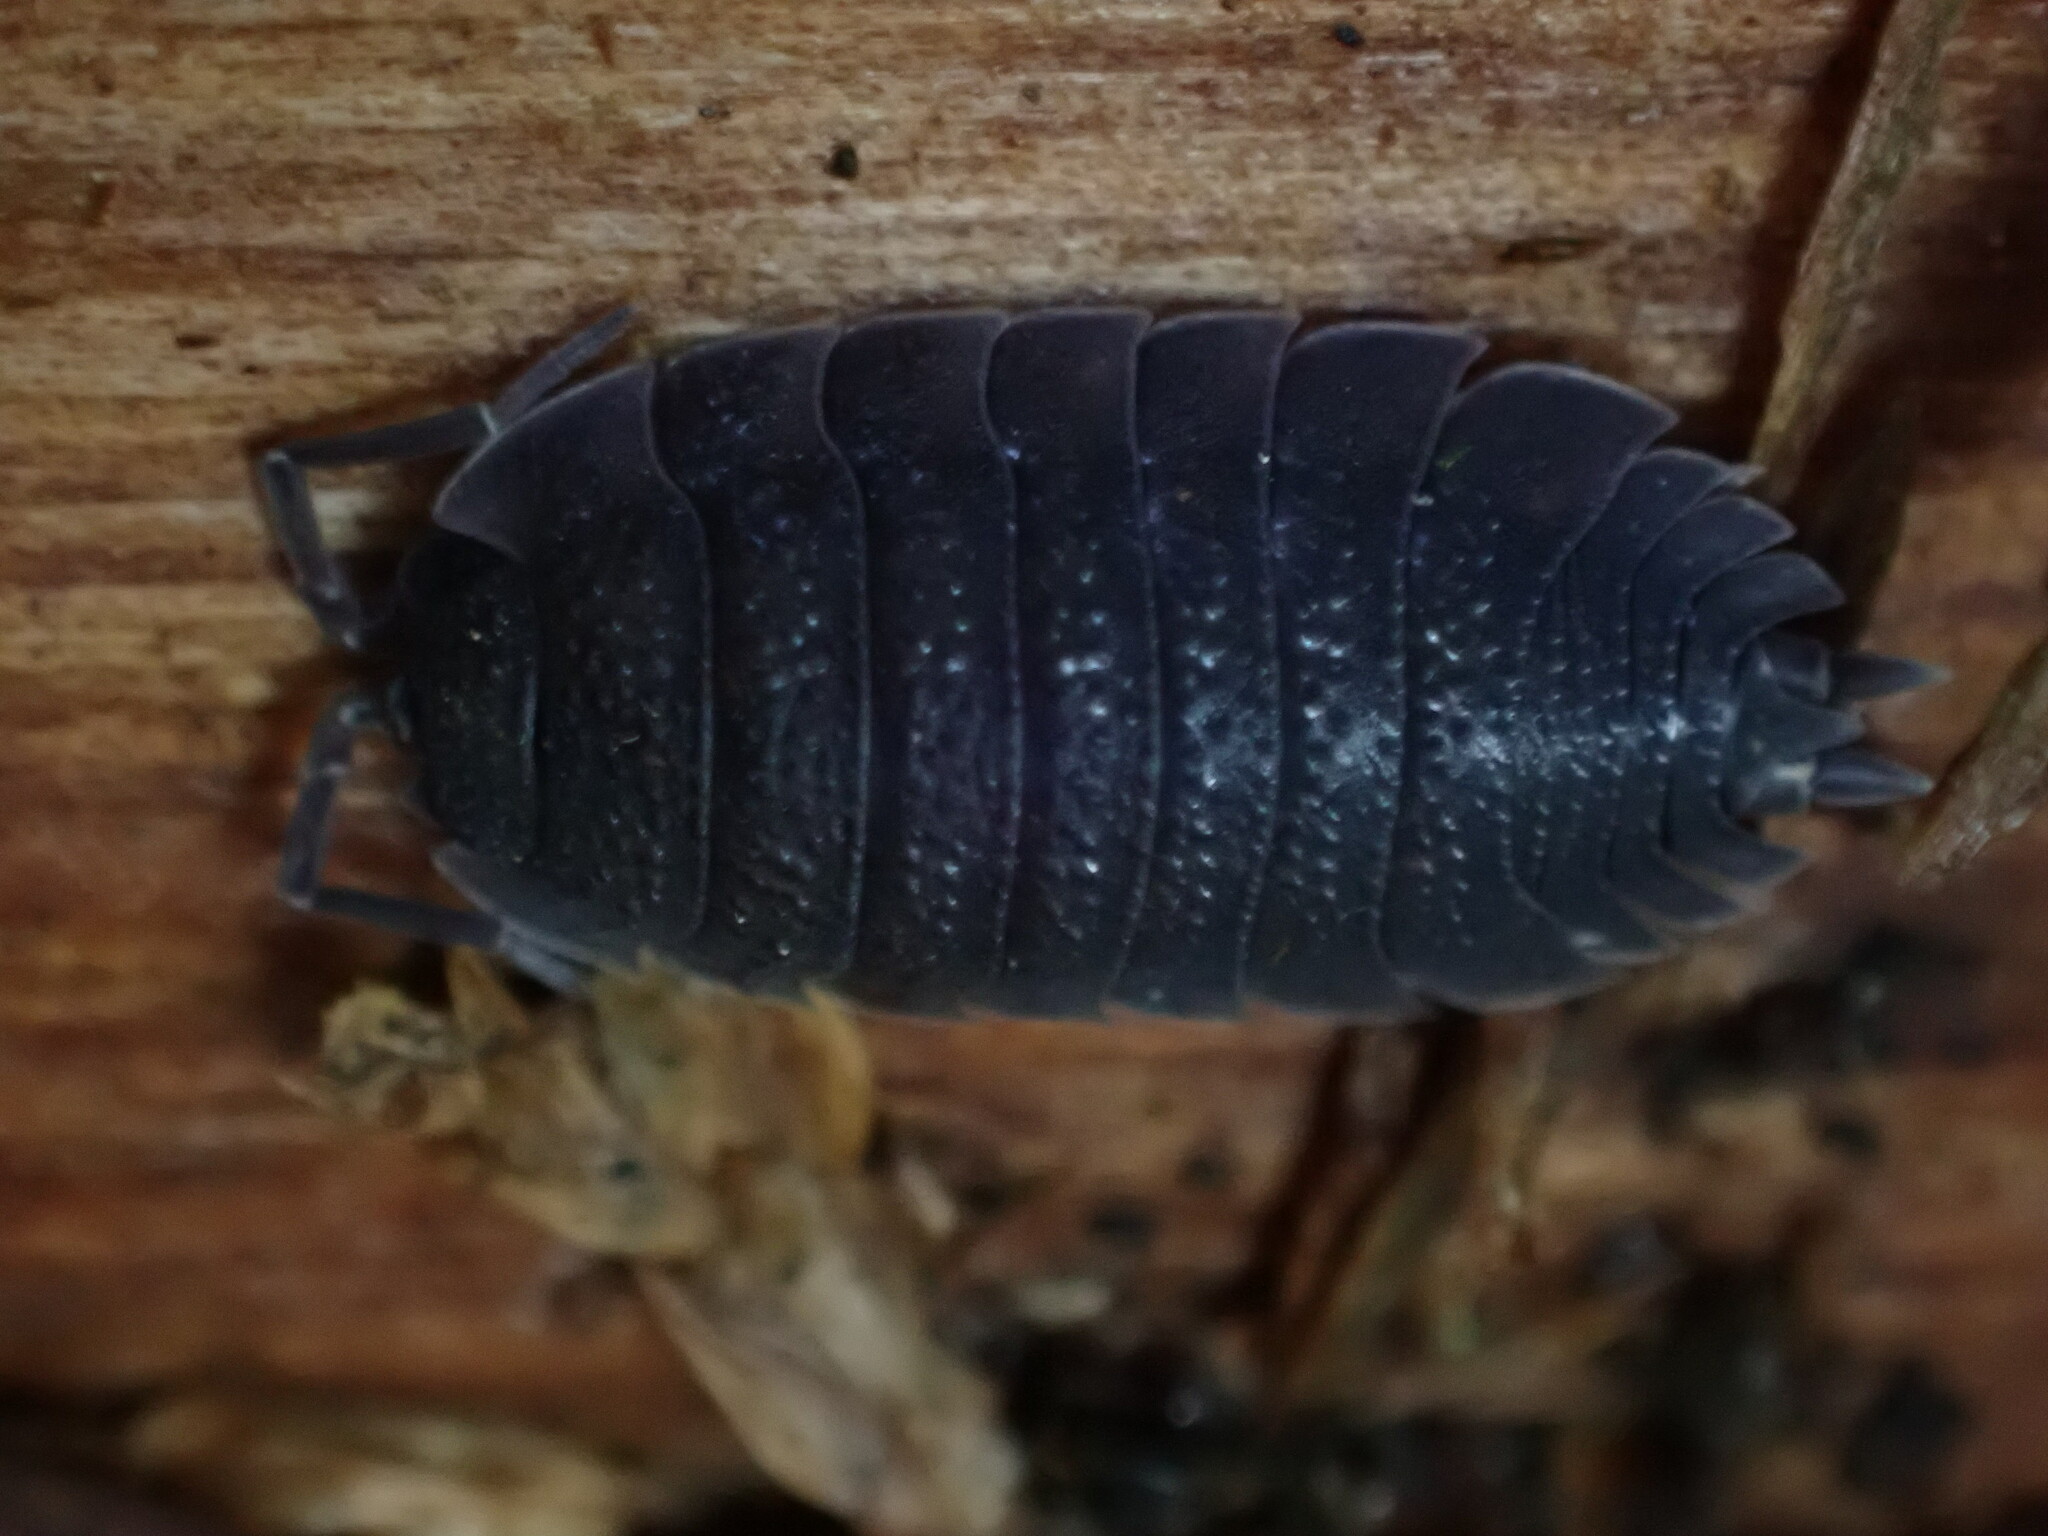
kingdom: Animalia
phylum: Arthropoda
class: Malacostraca
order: Isopoda
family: Porcellionidae
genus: Porcellio
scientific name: Porcellio scaber
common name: Common rough woodlouse
